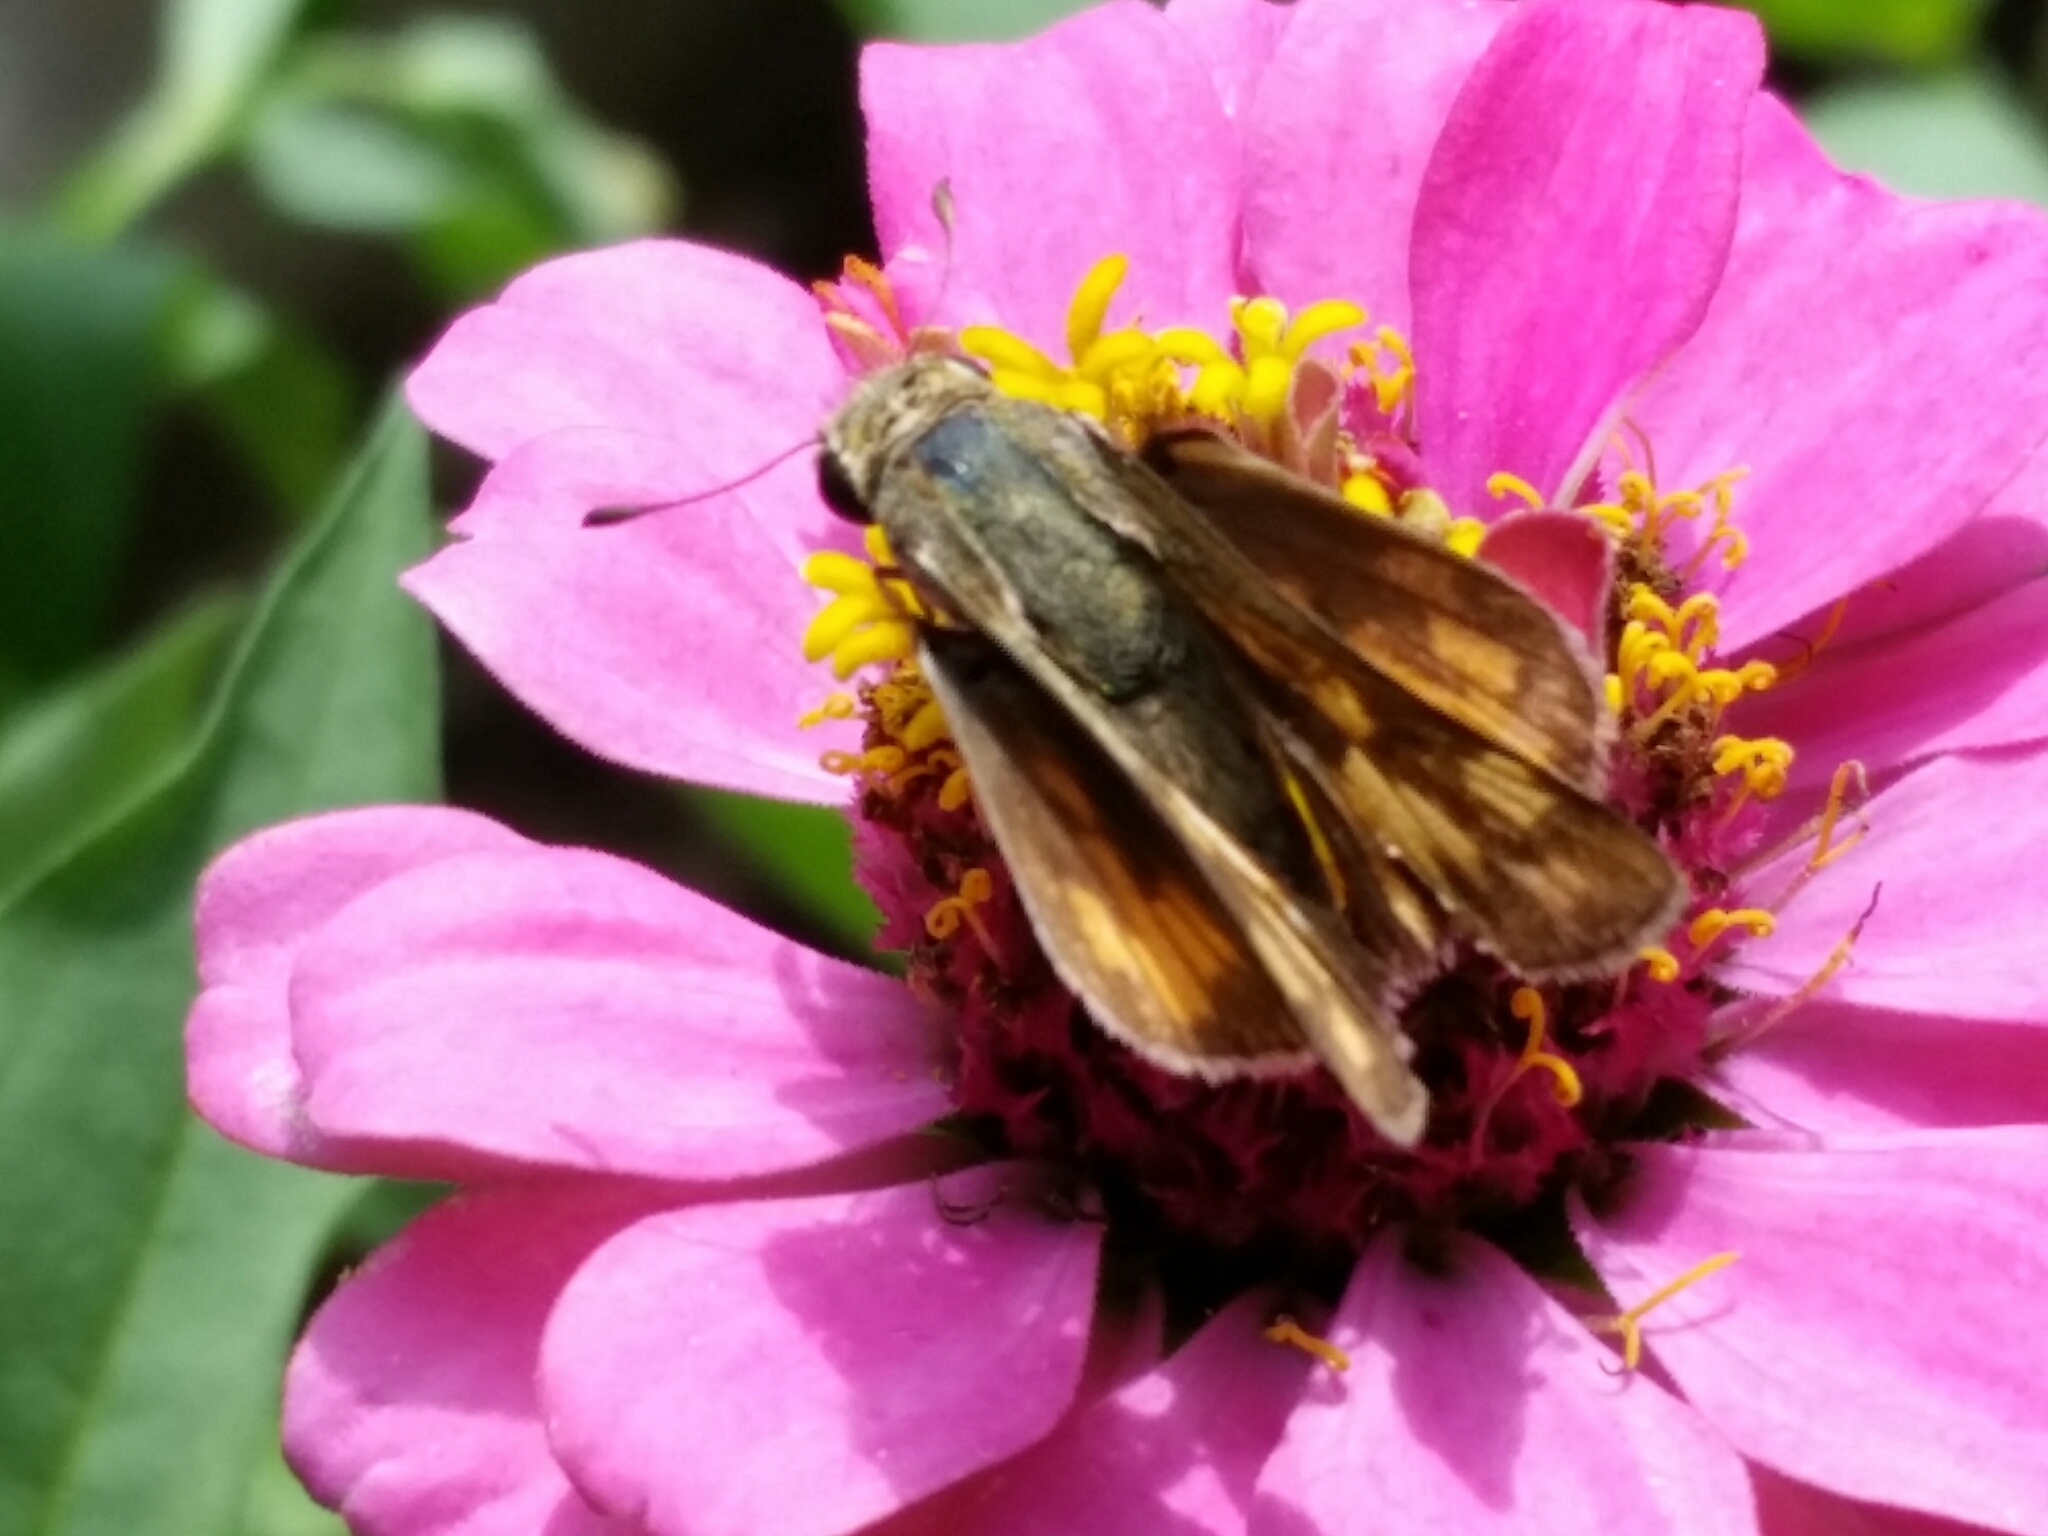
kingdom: Animalia
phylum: Arthropoda
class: Insecta
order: Lepidoptera
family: Hesperiidae
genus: Hylephila
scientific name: Hylephila phyleus
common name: Fiery skipper
